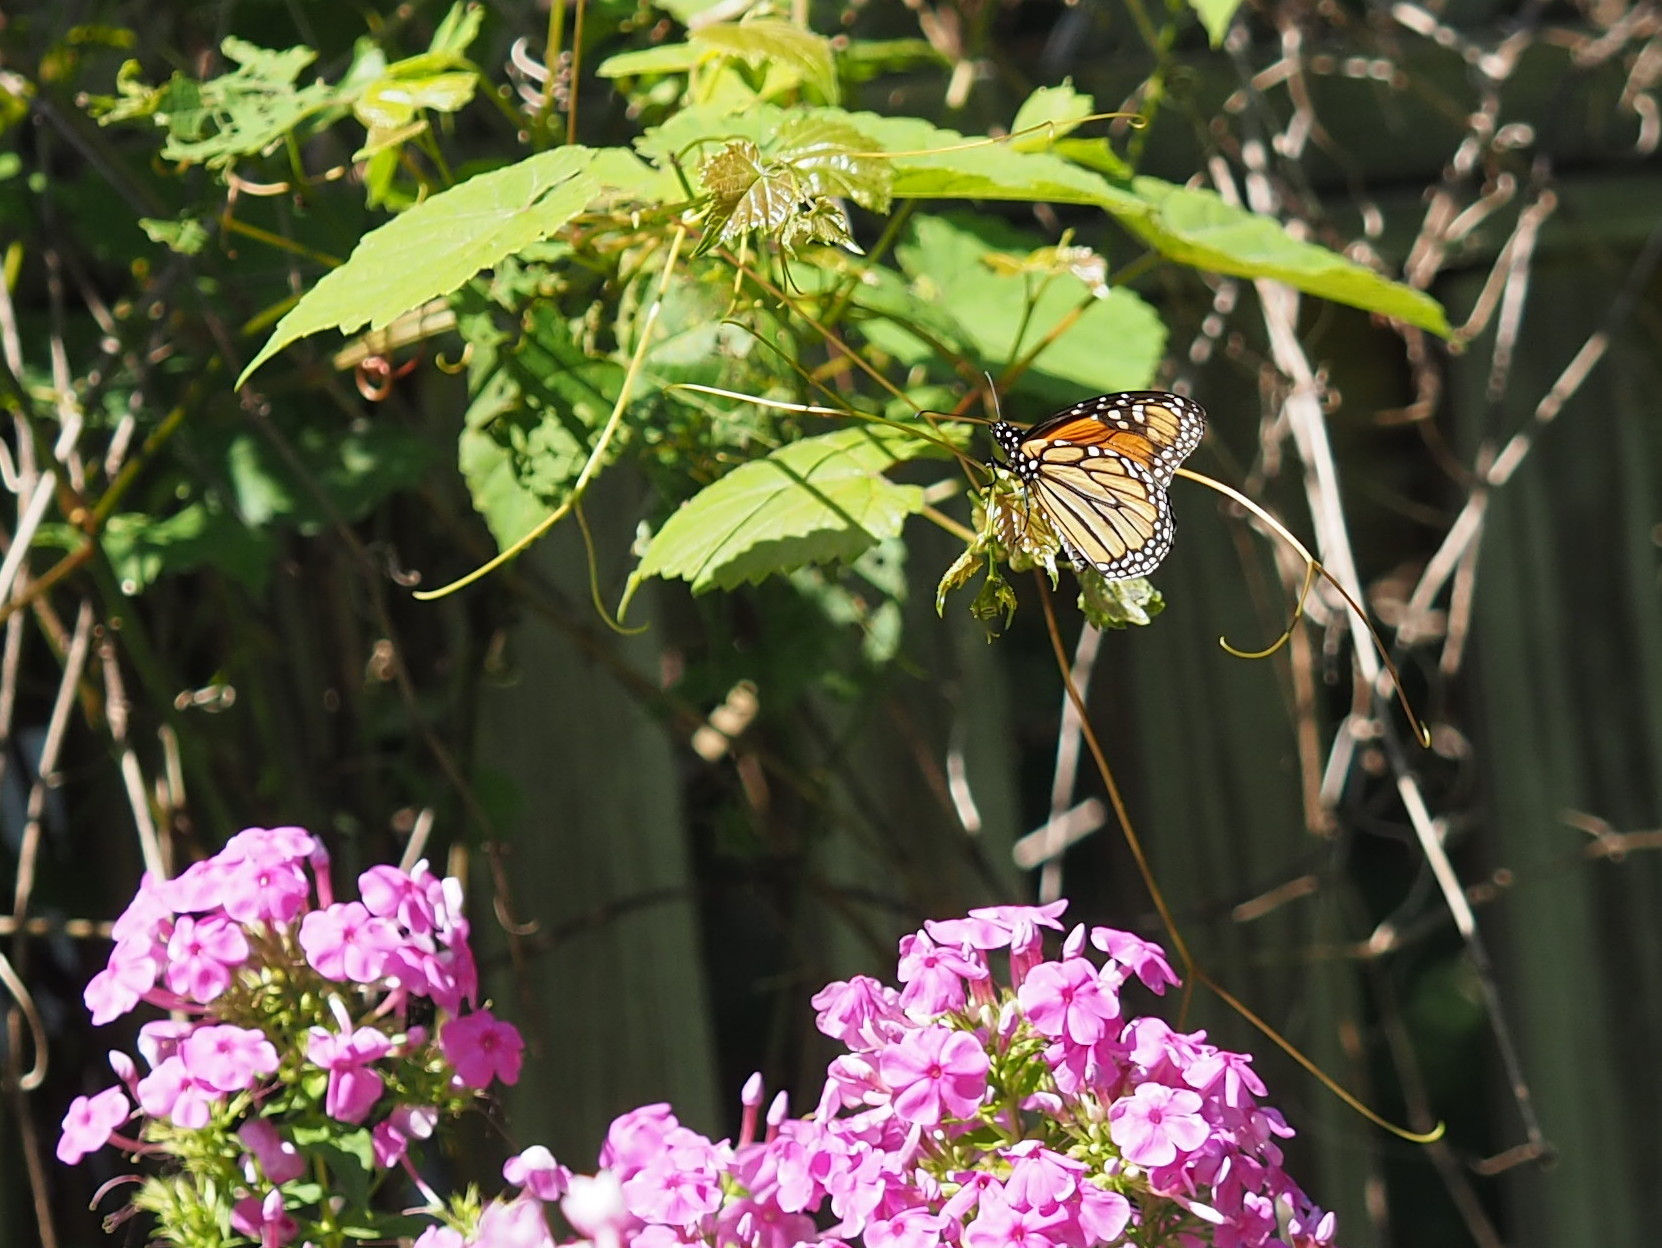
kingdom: Animalia
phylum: Arthropoda
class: Insecta
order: Lepidoptera
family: Nymphalidae
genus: Danaus
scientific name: Danaus plexippus
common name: Monarch
